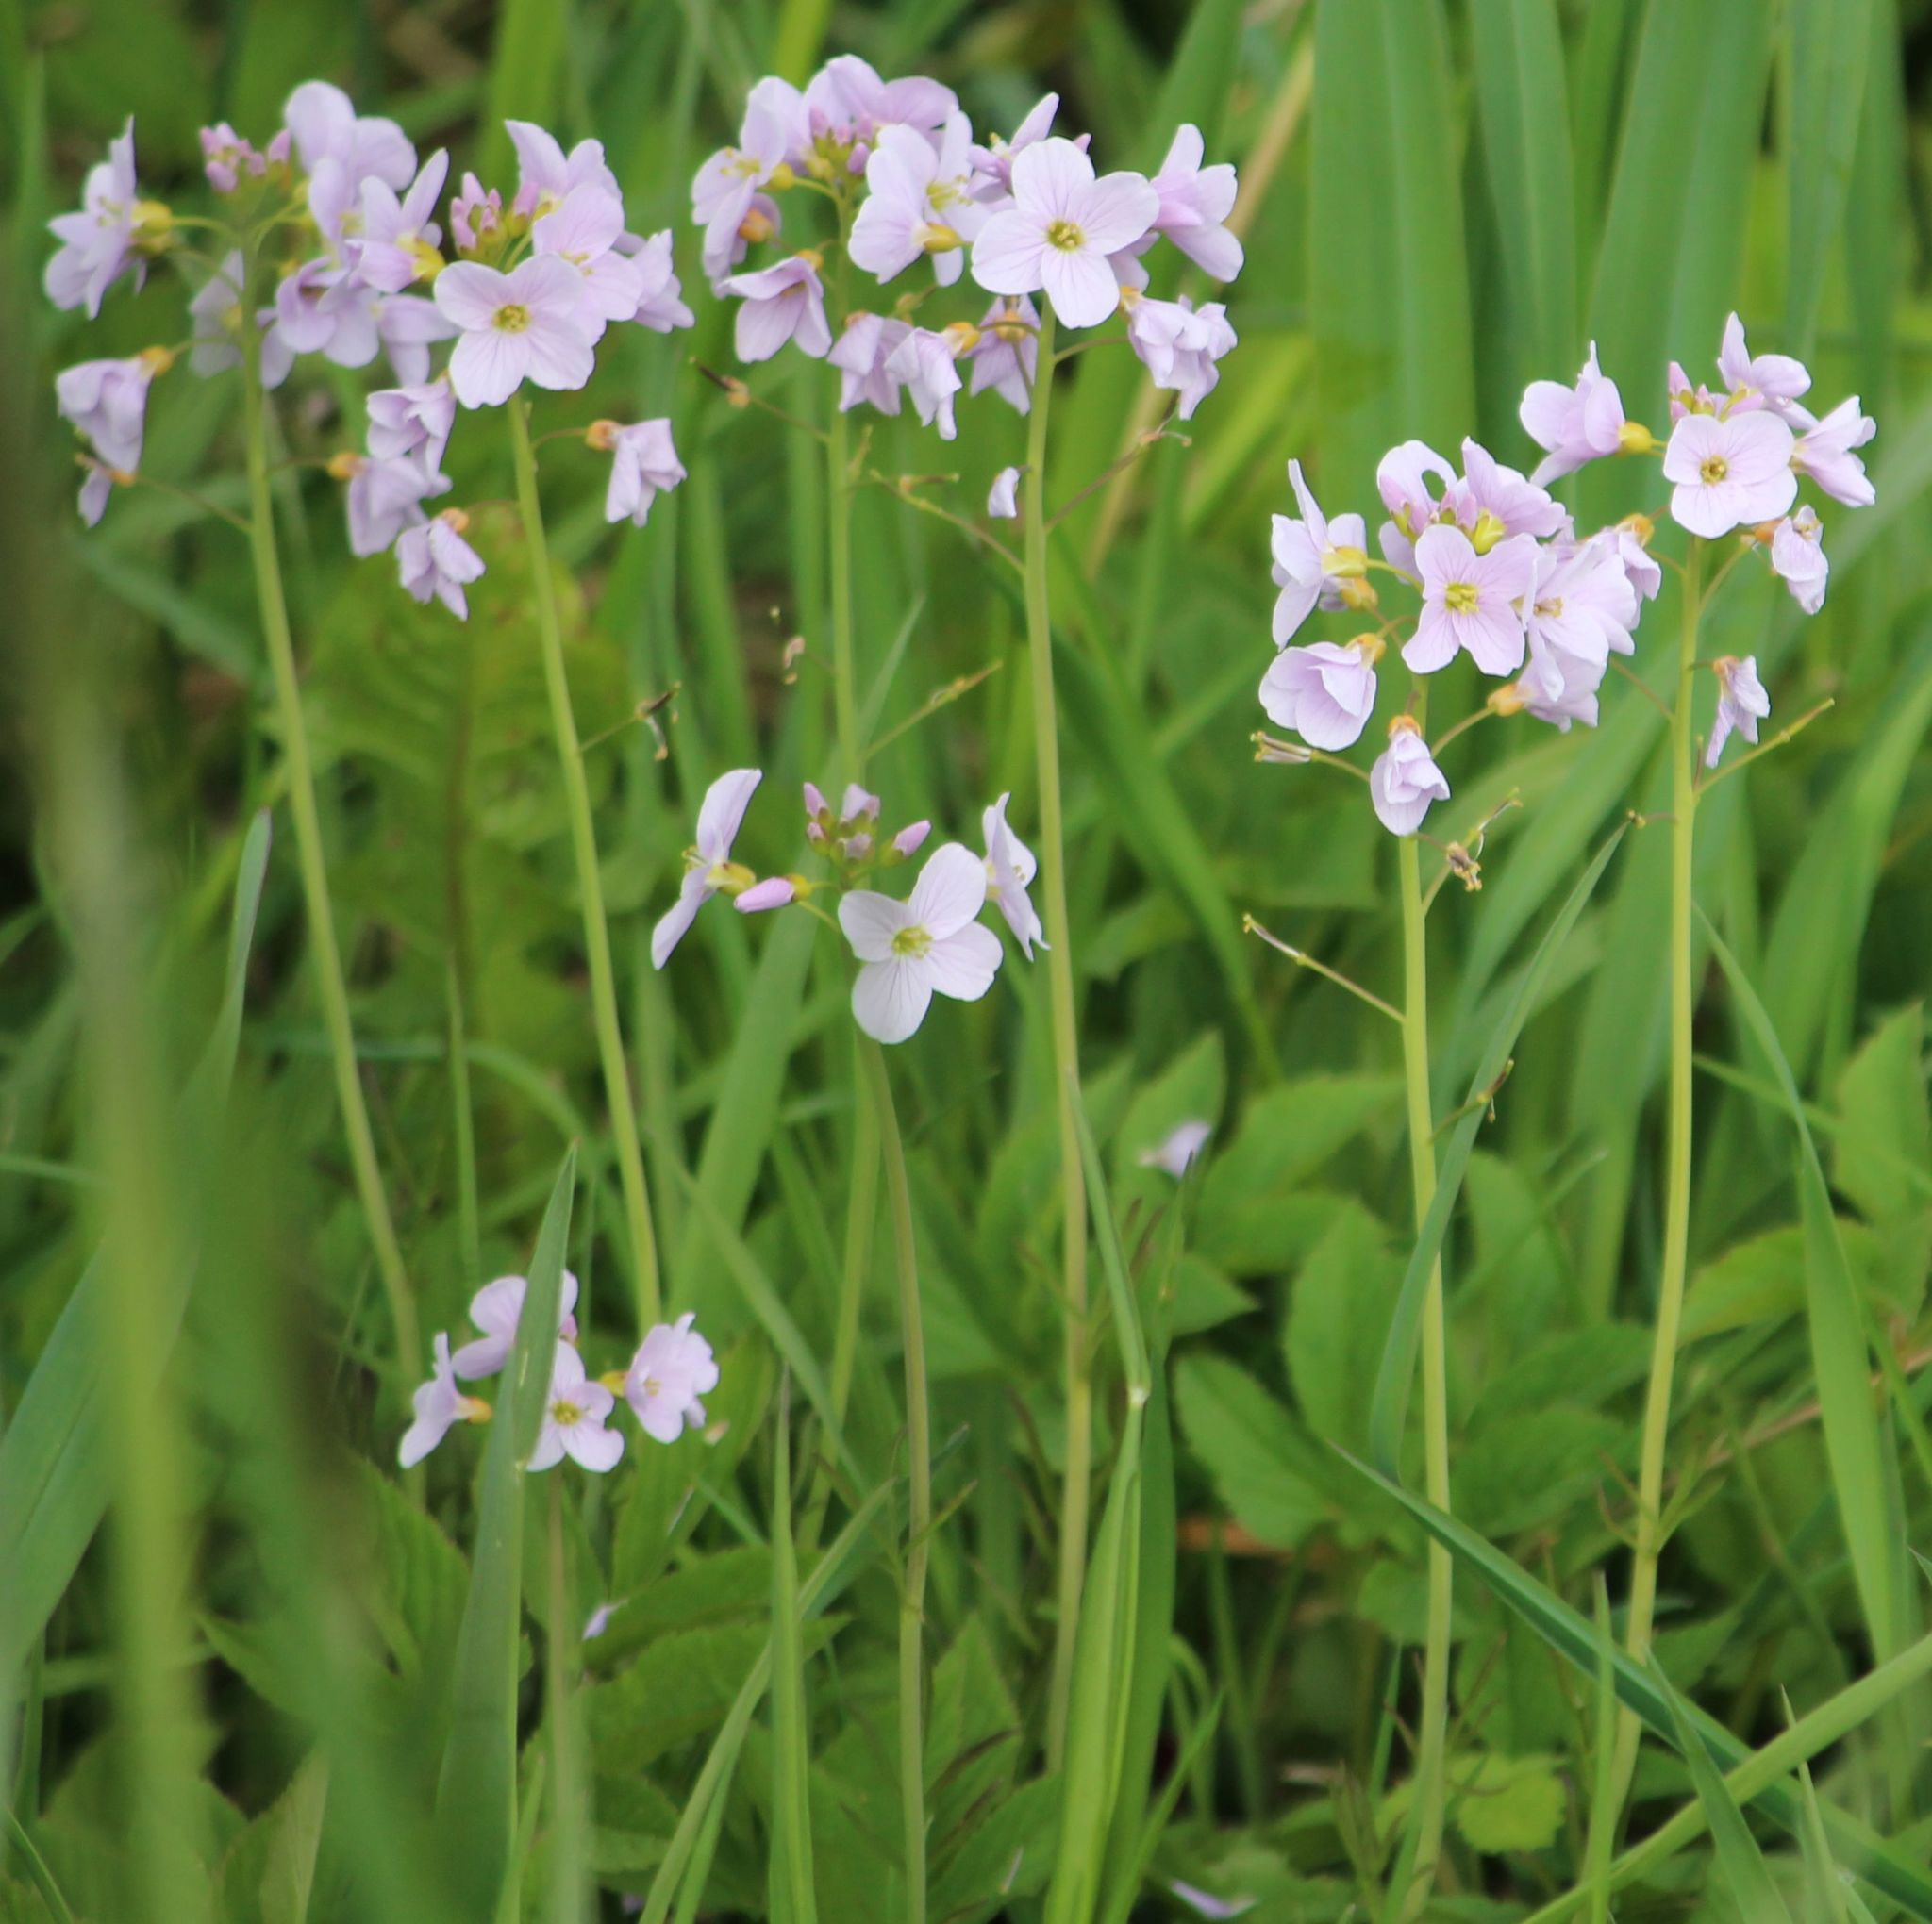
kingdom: Plantae
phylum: Tracheophyta
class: Magnoliopsida
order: Brassicales
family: Brassicaceae
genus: Cardamine
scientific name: Cardamine pratensis
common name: Cuckoo flower
